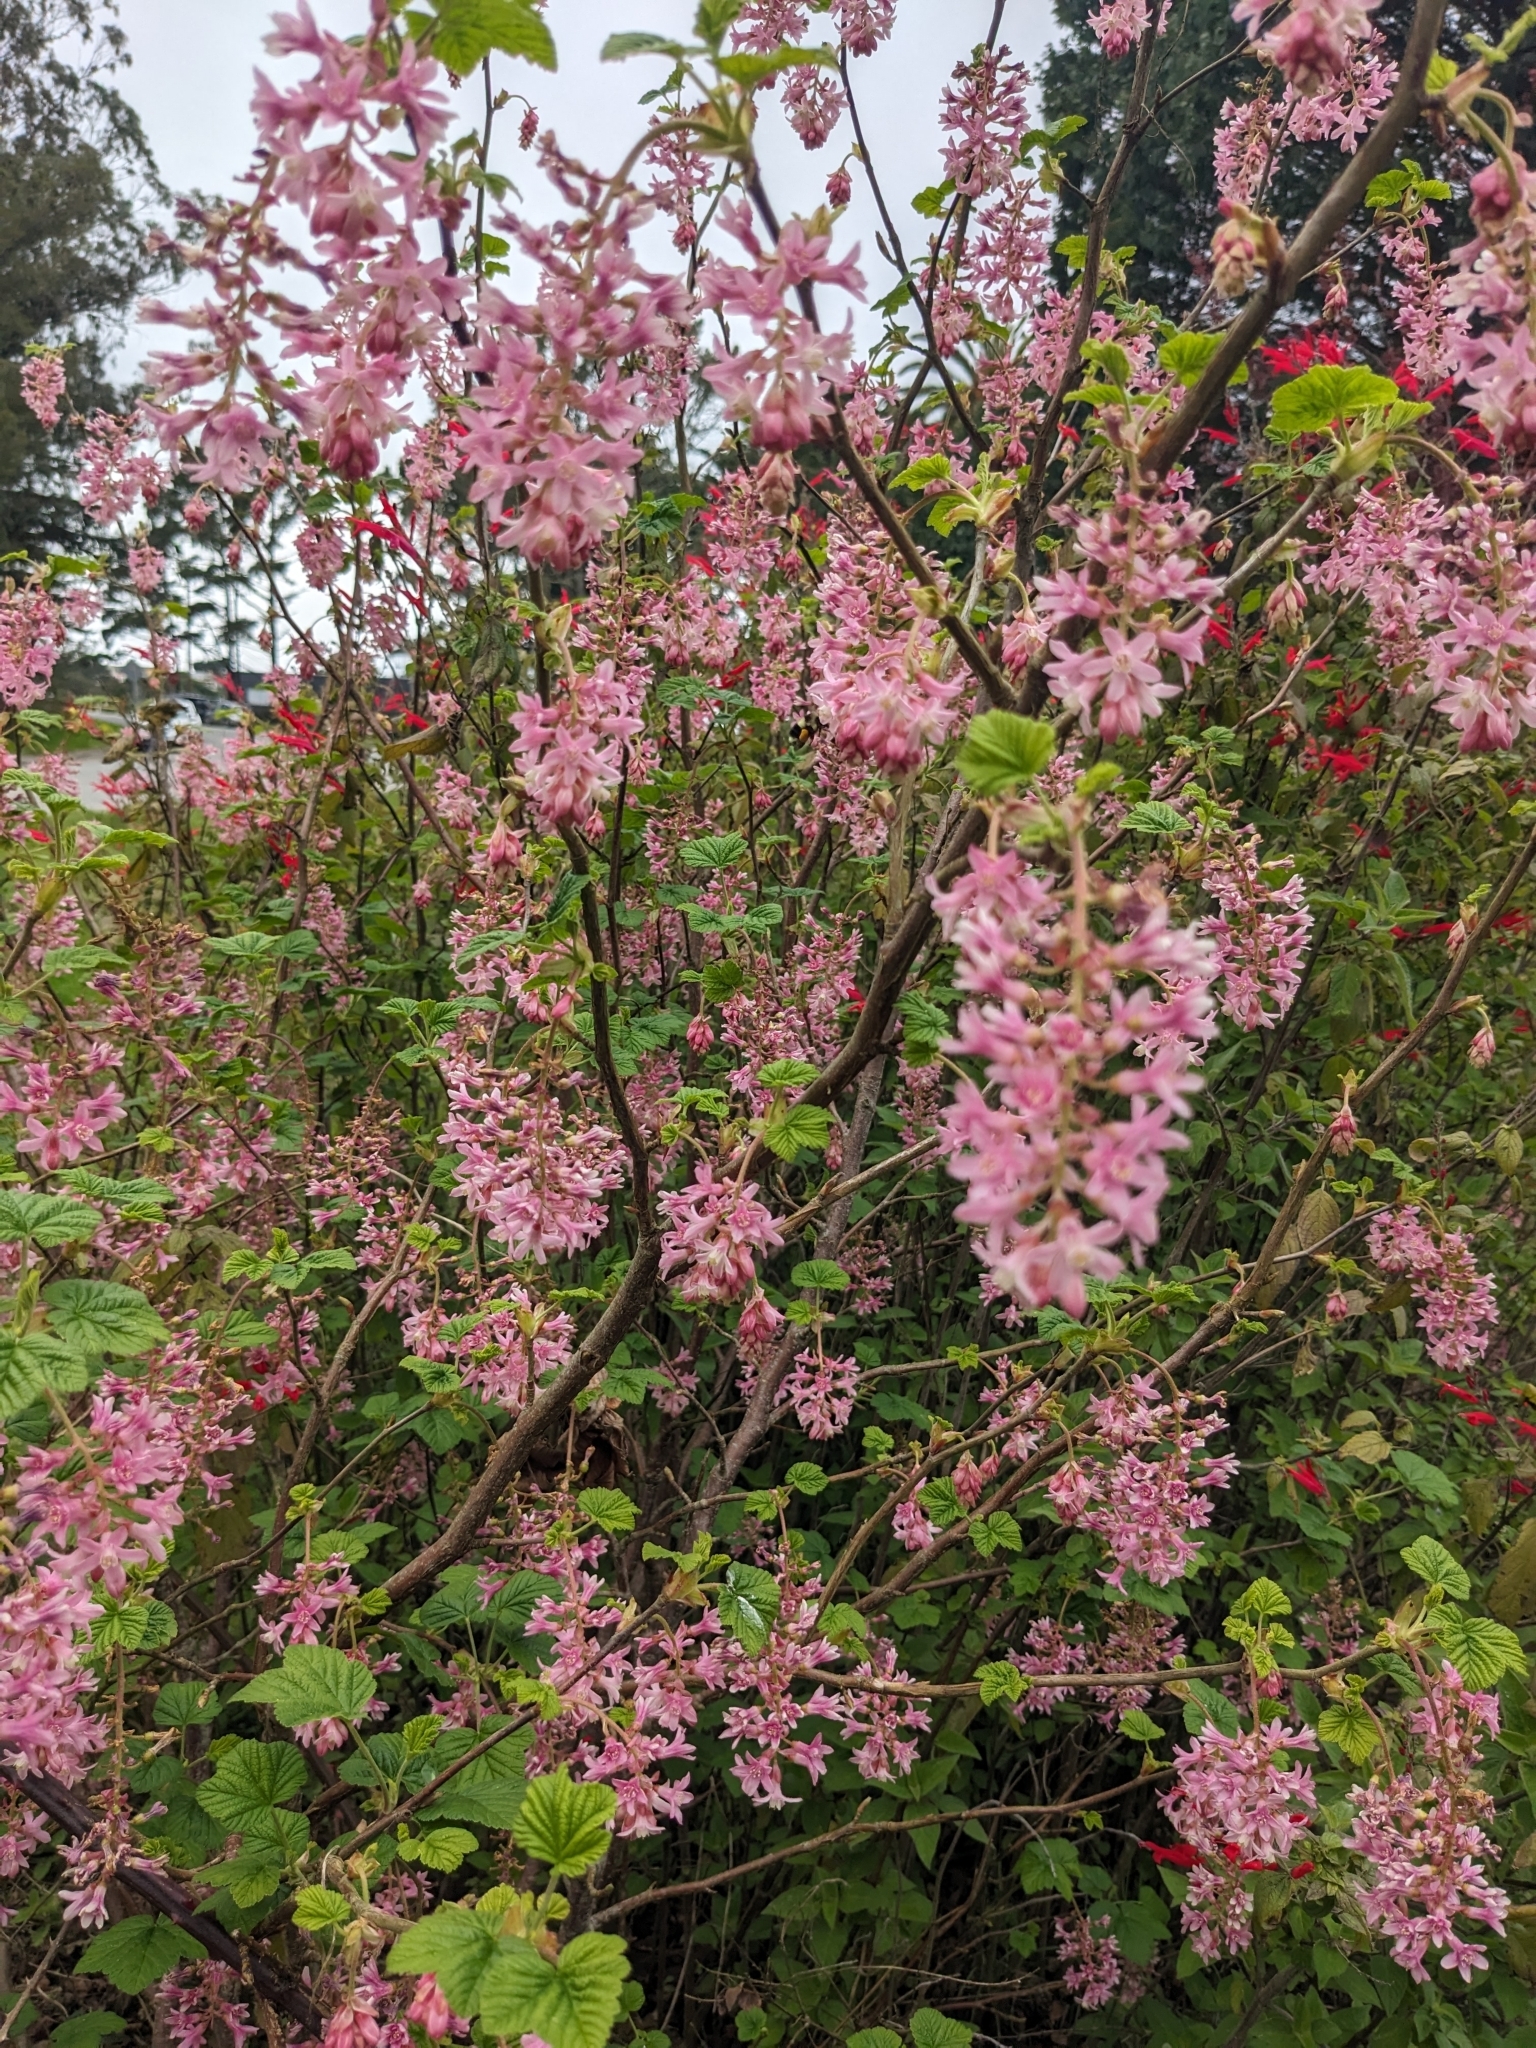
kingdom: Plantae
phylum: Tracheophyta
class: Magnoliopsida
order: Saxifragales
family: Grossulariaceae
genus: Ribes
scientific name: Ribes sanguineum
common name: Flowering currant
